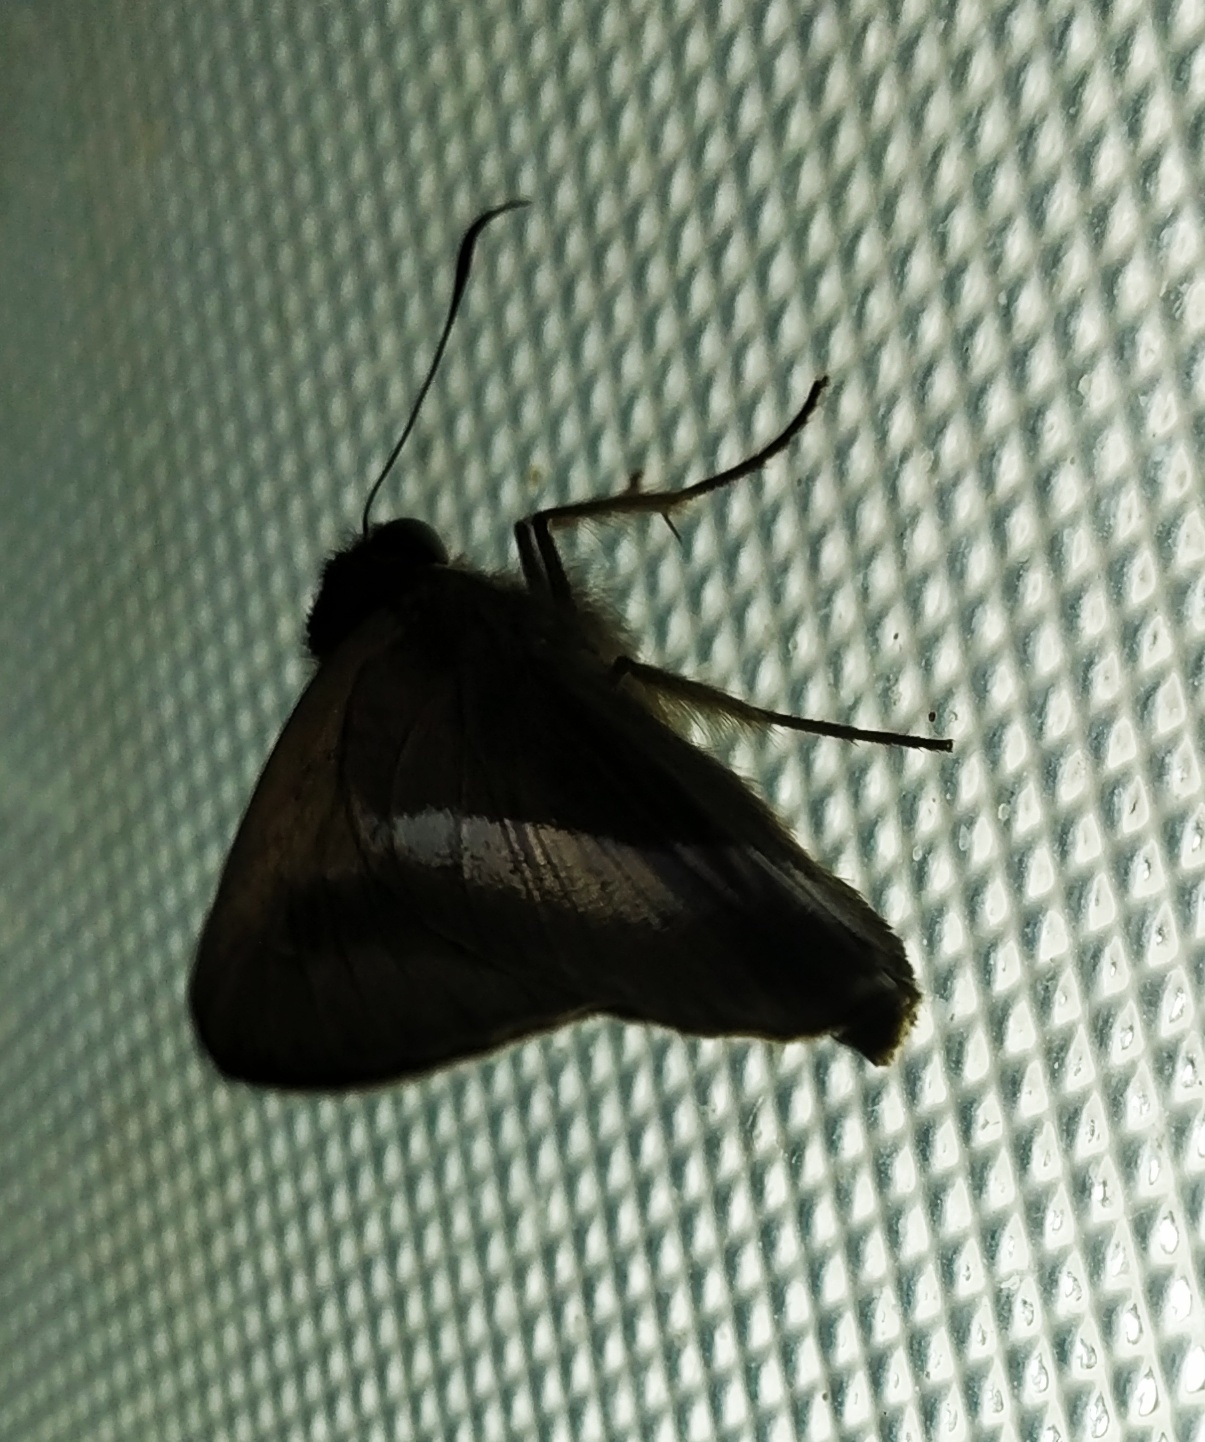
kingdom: Animalia
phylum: Arthropoda
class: Insecta
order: Lepidoptera
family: Hesperiidae
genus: Hasora
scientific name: Hasora vitta
